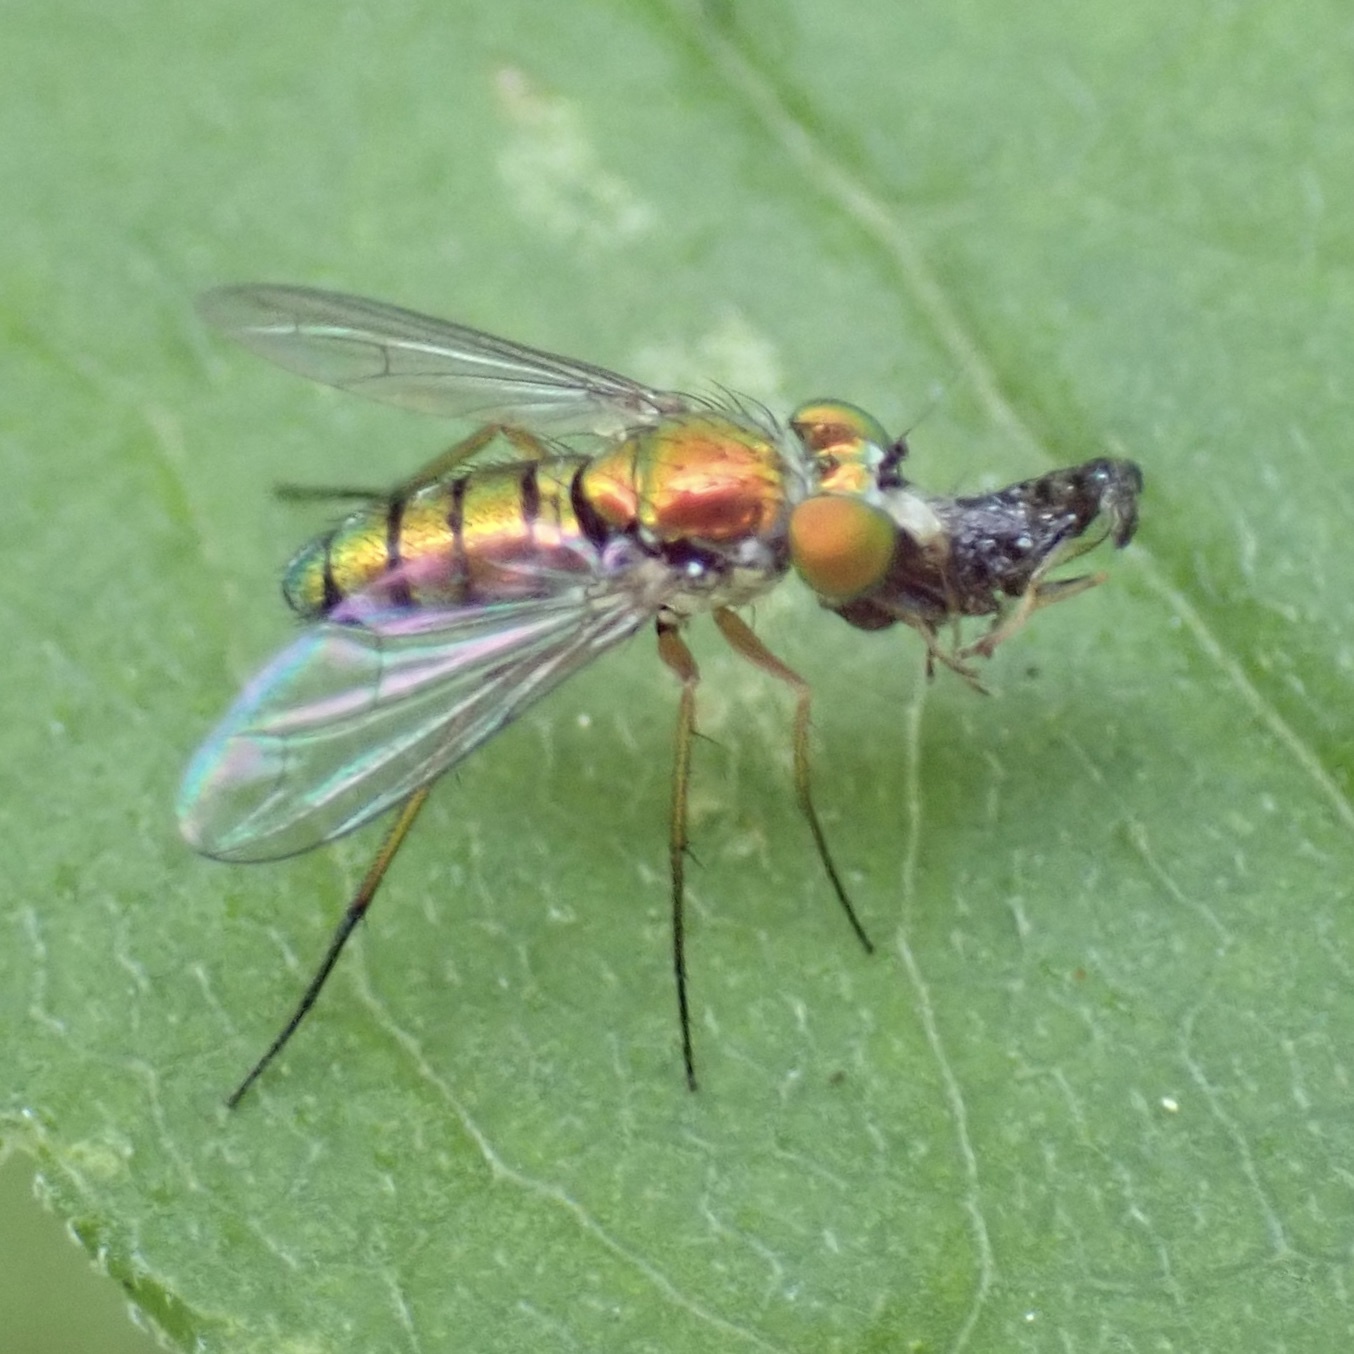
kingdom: Animalia
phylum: Arthropoda
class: Insecta
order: Diptera
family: Dolichopodidae
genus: Condylostylus
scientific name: Condylostylus
